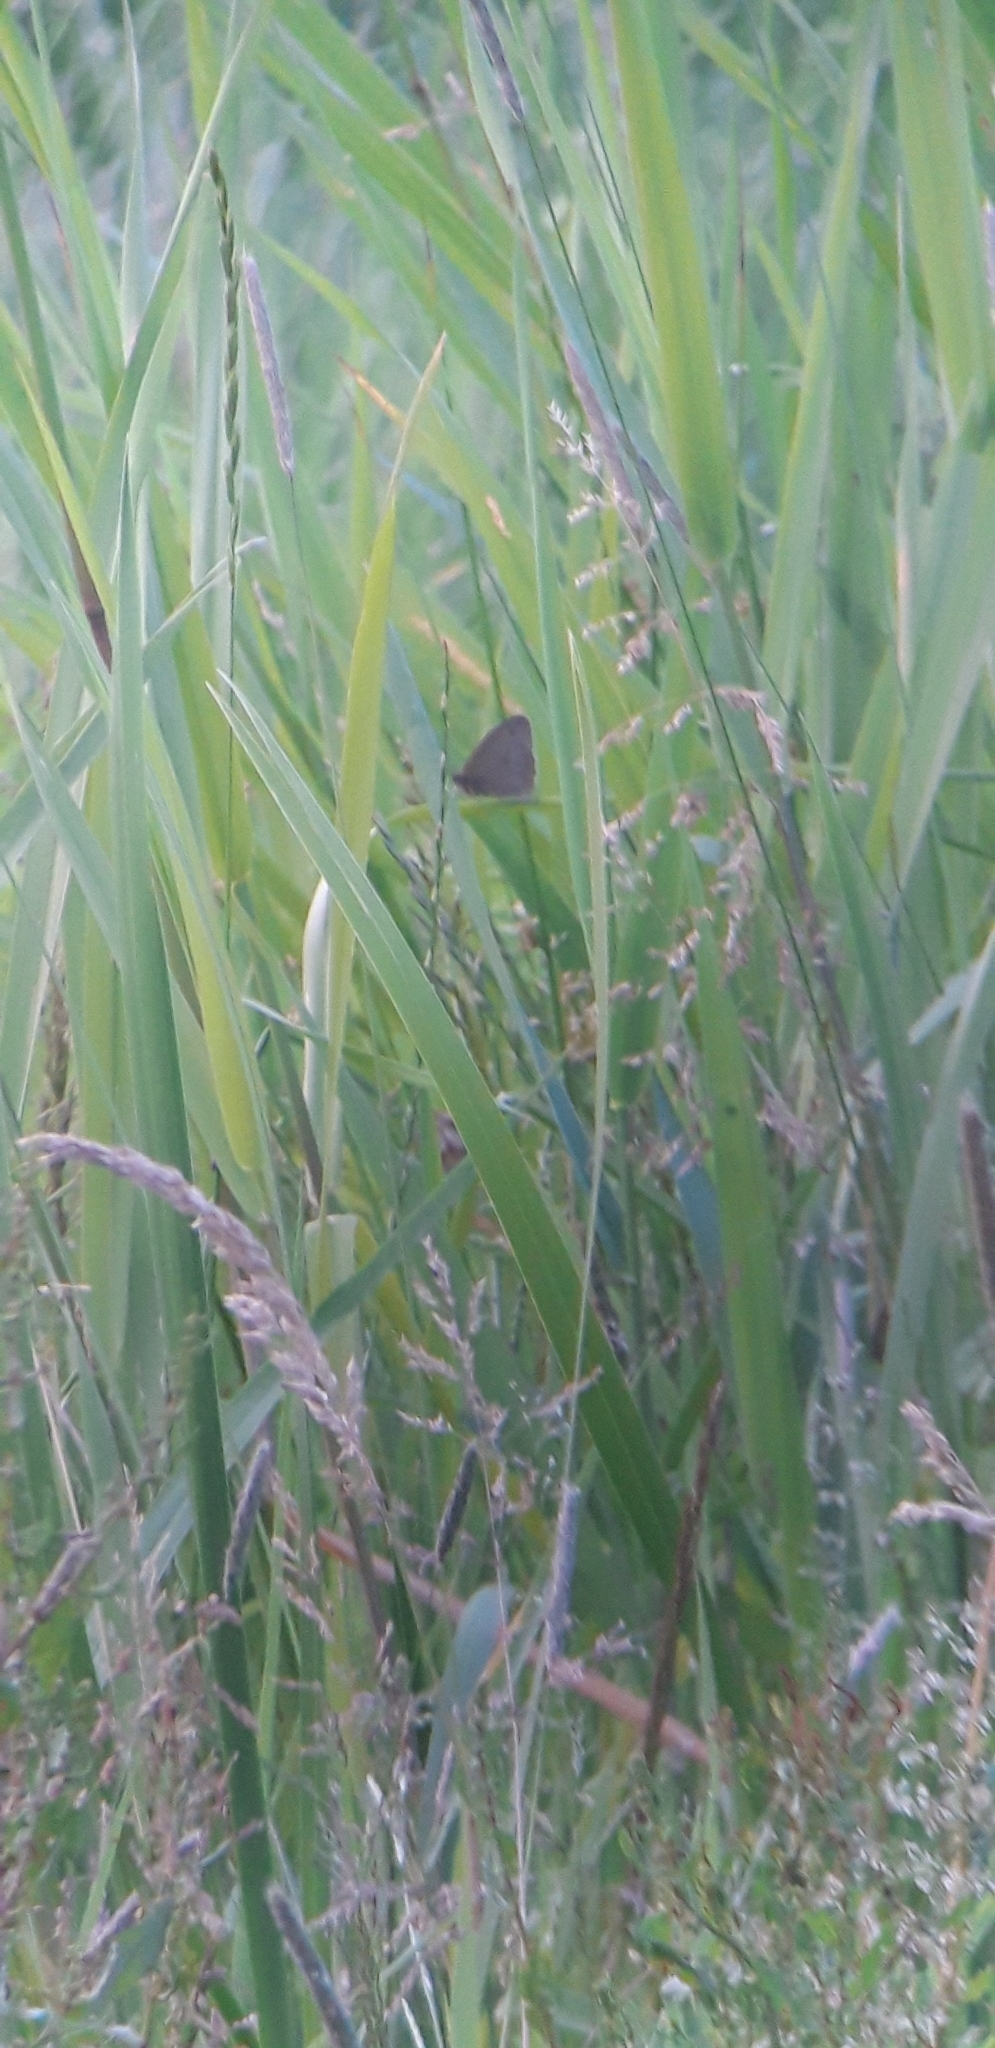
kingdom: Animalia
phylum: Arthropoda
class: Insecta
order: Lepidoptera
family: Nymphalidae
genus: Maniola
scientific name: Maniola jurtina
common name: Meadow brown
